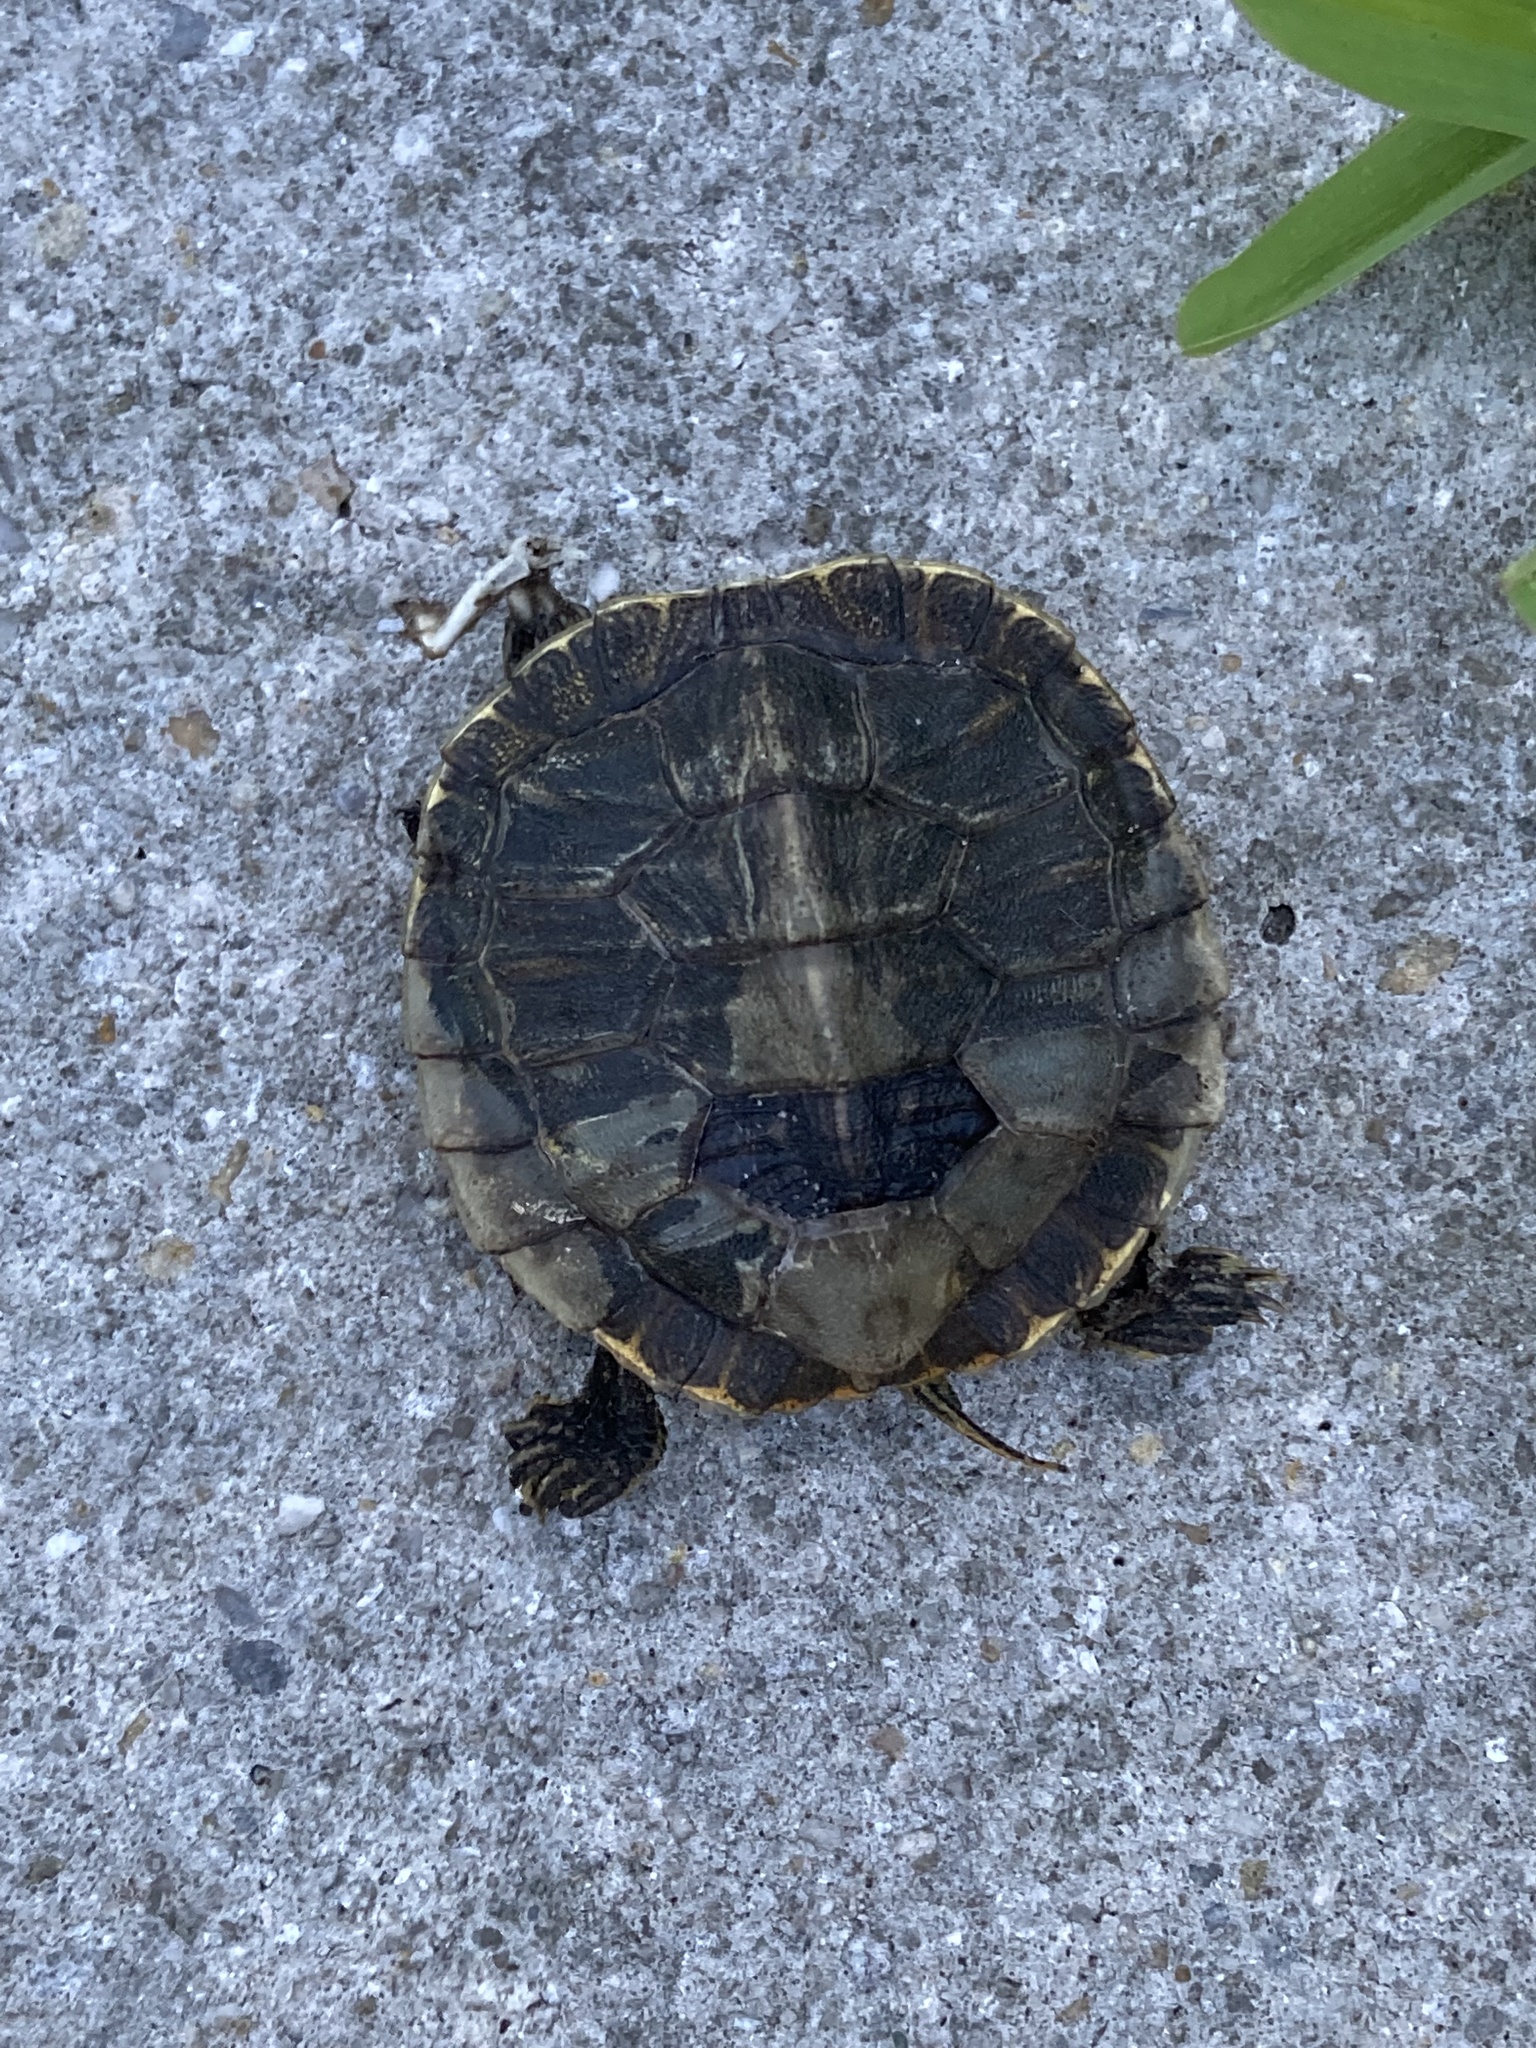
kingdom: Animalia
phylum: Chordata
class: Testudines
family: Emydidae
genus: Trachemys
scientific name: Trachemys scripta
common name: Slider
